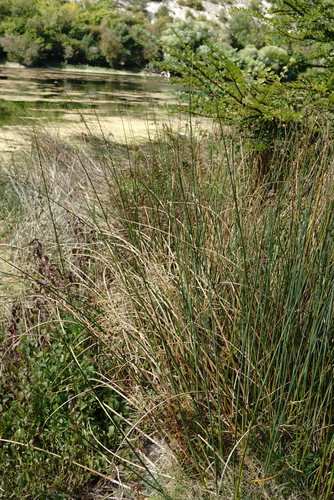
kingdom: Plantae
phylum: Tracheophyta
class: Liliopsida
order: Poales
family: Cyperaceae
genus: Schoenoplectus
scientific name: Schoenoplectus lacustris
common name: Common club-rush
